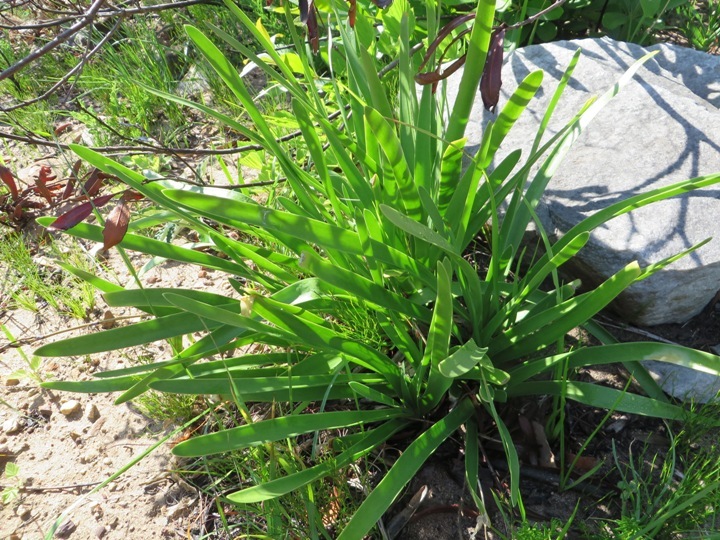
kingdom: Plantae
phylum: Tracheophyta
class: Liliopsida
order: Asparagales
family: Amaryllidaceae
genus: Agapanthus
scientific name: Agapanthus africanus
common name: Lily-of-the-nile
